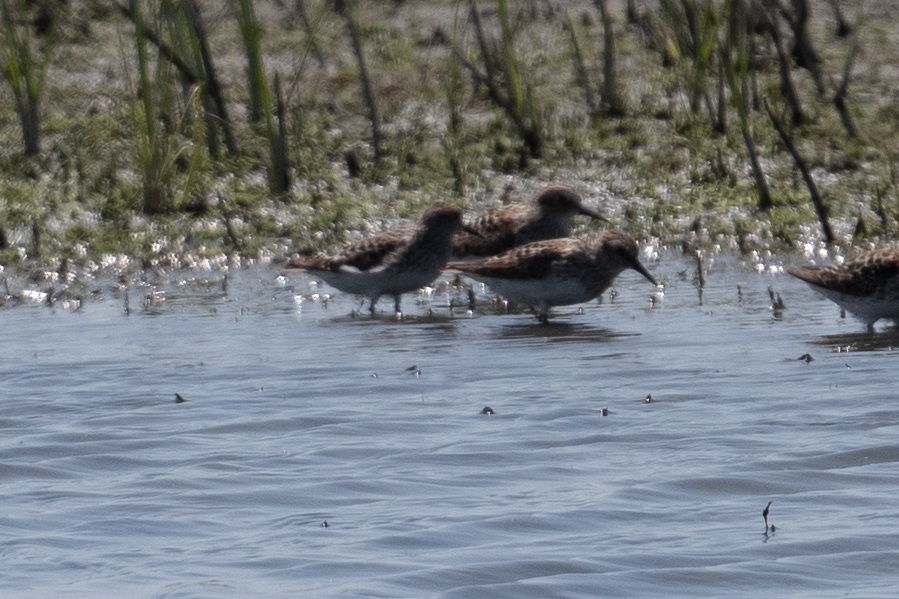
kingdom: Animalia
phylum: Chordata
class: Aves
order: Charadriiformes
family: Scolopacidae
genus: Calidris
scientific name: Calidris minutilla
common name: Least sandpiper
